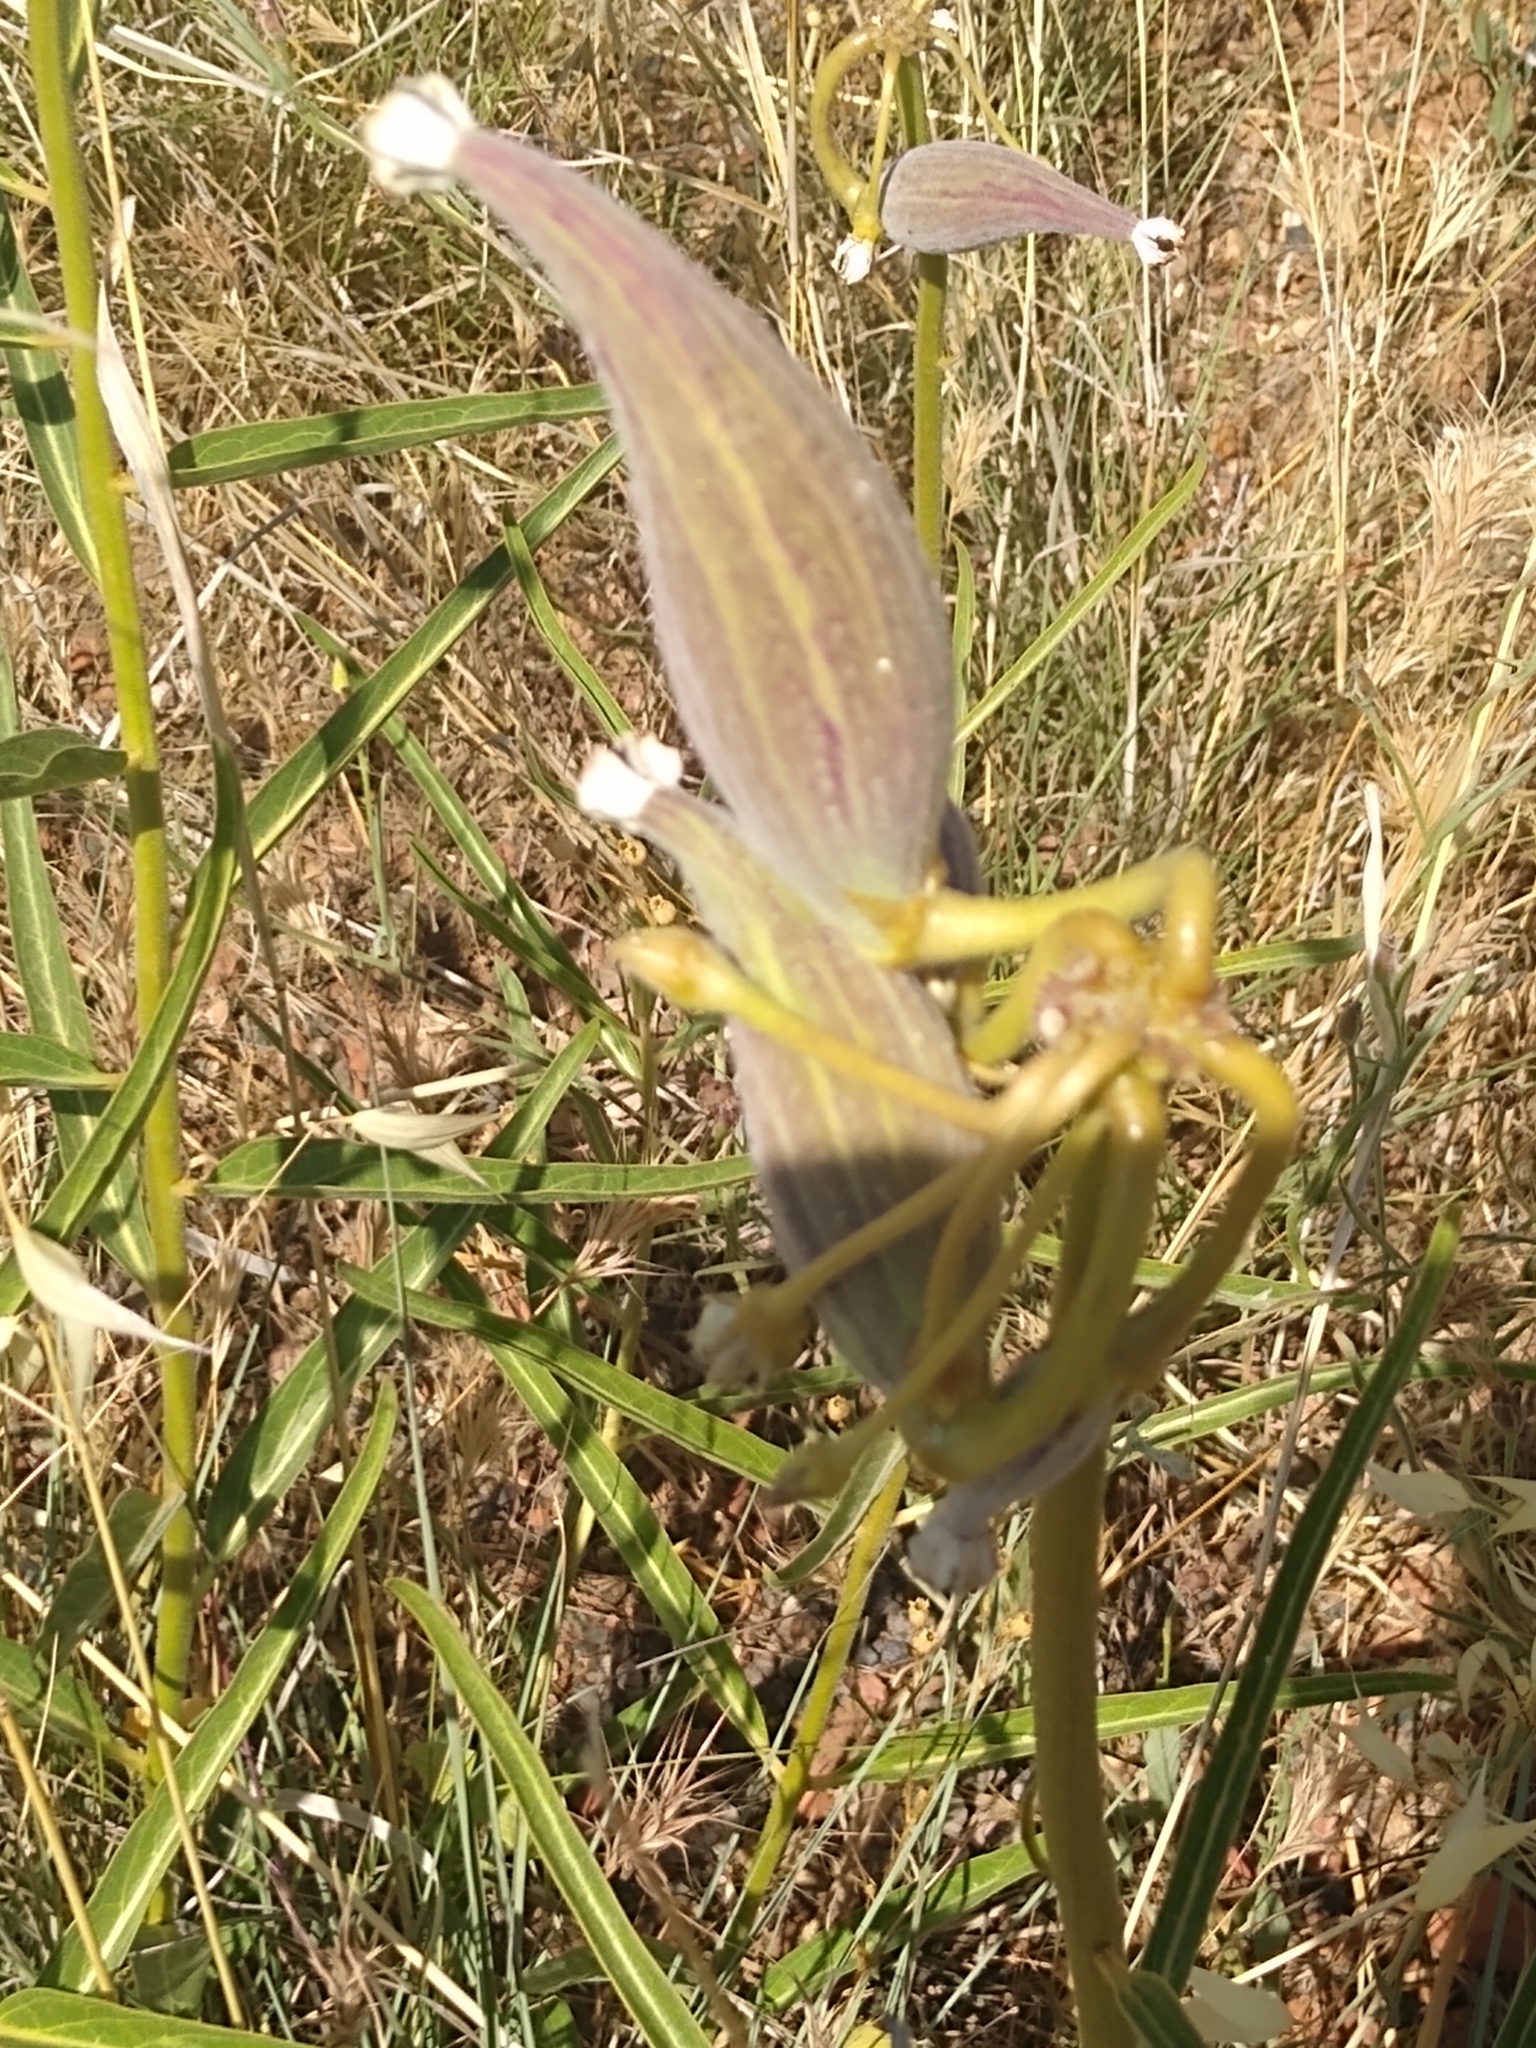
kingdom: Plantae
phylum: Tracheophyta
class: Magnoliopsida
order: Gentianales
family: Apocynaceae
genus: Asclepias
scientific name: Asclepias asperula
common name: Antelope horns
